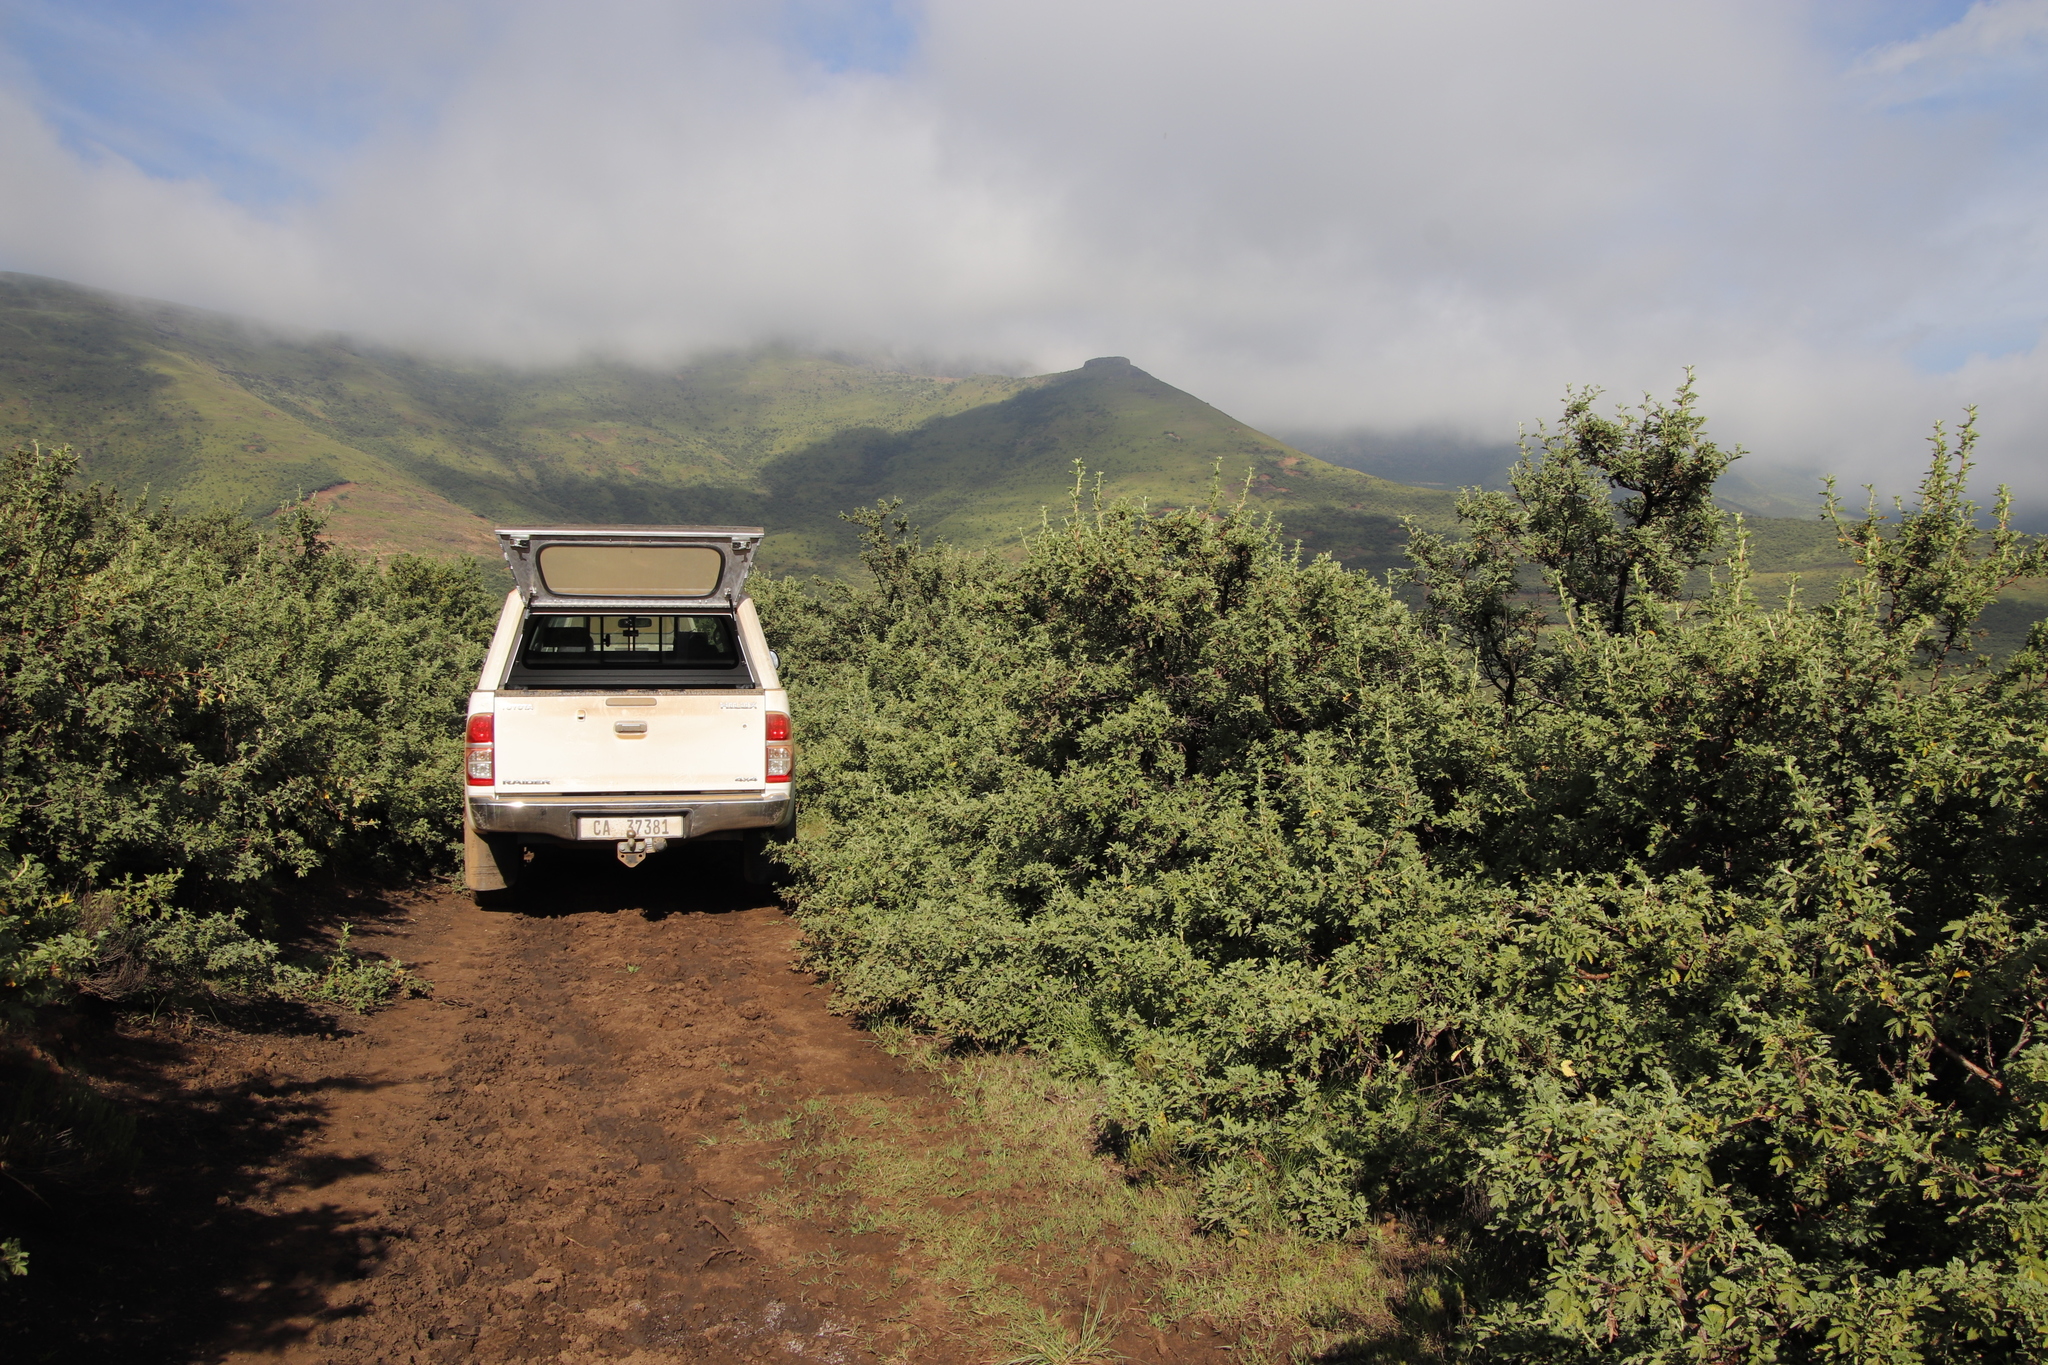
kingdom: Plantae
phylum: Tracheophyta
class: Magnoliopsida
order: Rosales
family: Rosaceae
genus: Leucosidea
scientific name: Leucosidea sericea
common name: Oldwood
